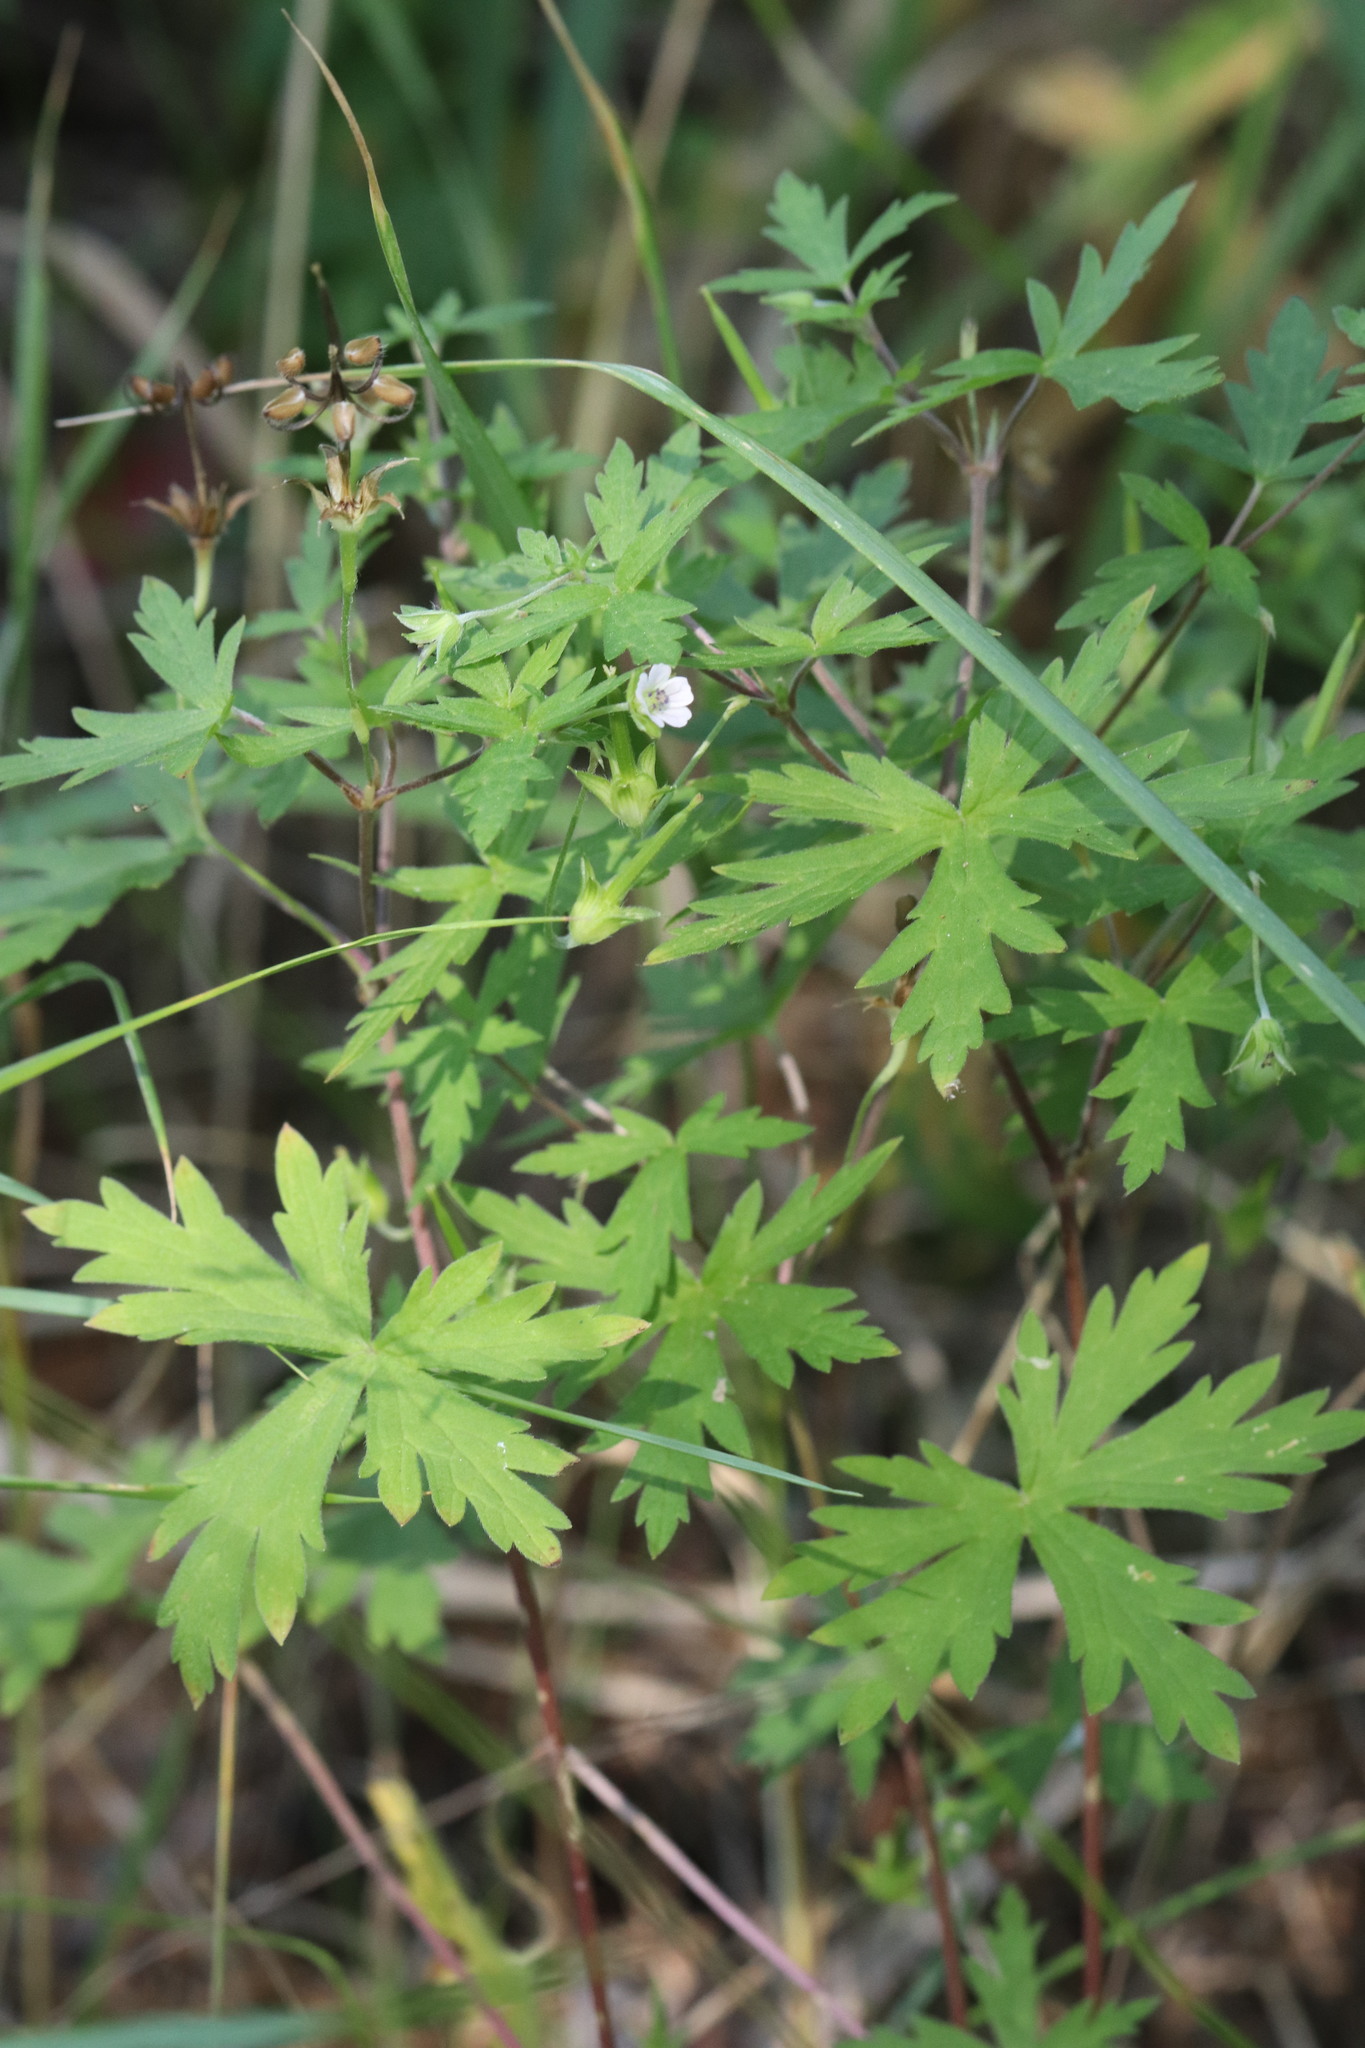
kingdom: Plantae
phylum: Tracheophyta
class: Magnoliopsida
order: Geraniales
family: Geraniaceae
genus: Geranium
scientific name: Geranium sibiricum
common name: Siberian crane's-bill
